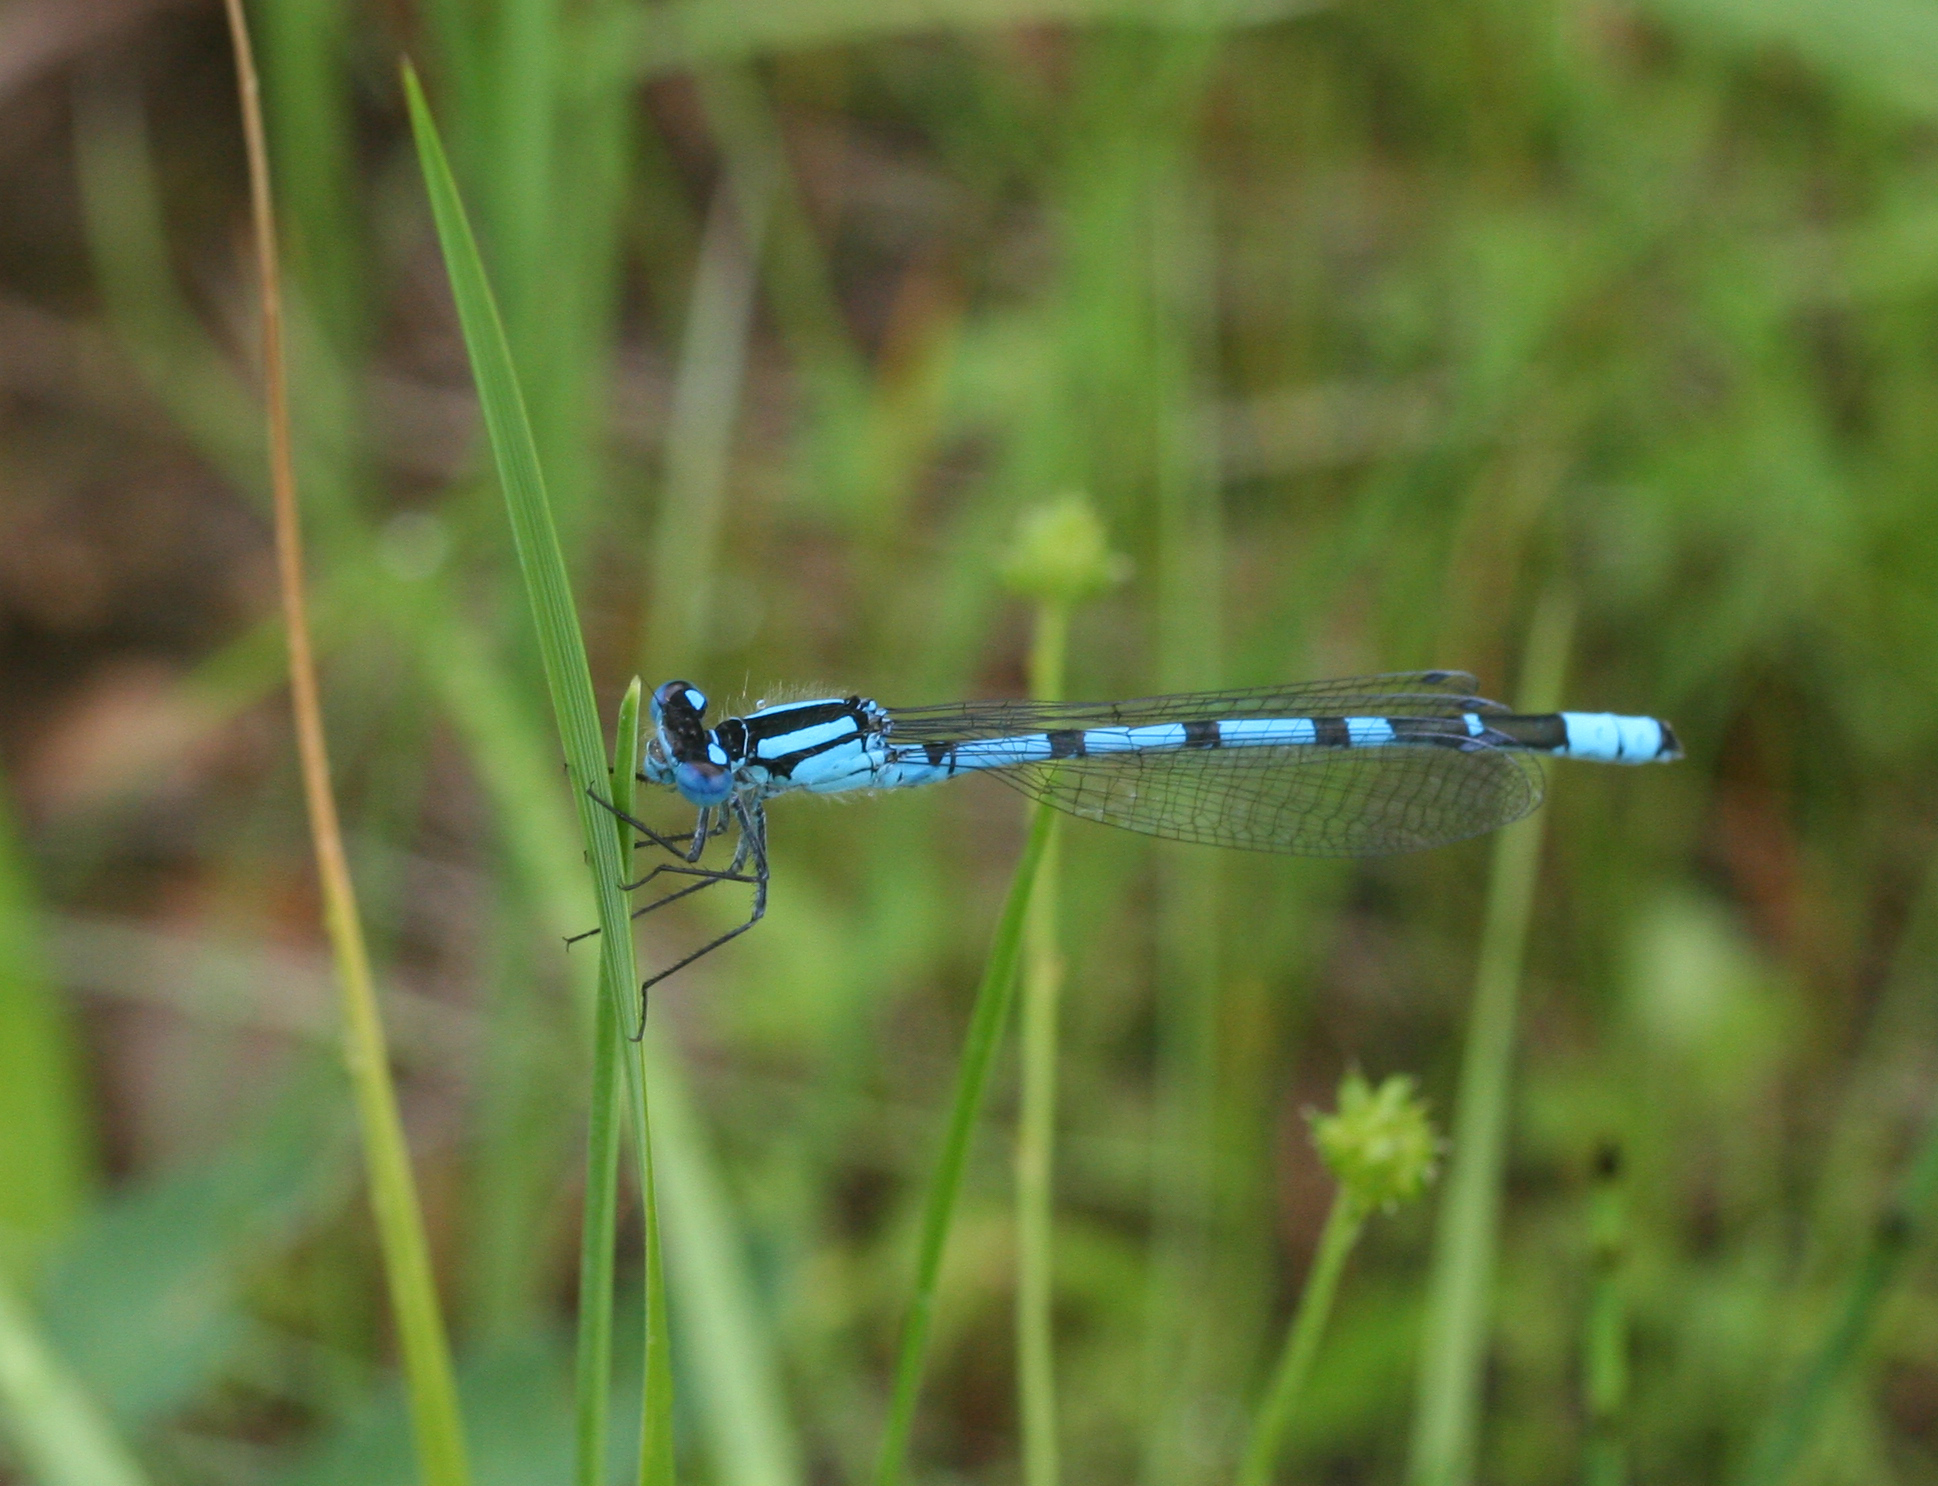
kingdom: Animalia
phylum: Arthropoda
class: Insecta
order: Odonata
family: Coenagrionidae
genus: Enallagma
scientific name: Enallagma cyathigerum
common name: Common blue damselfly
